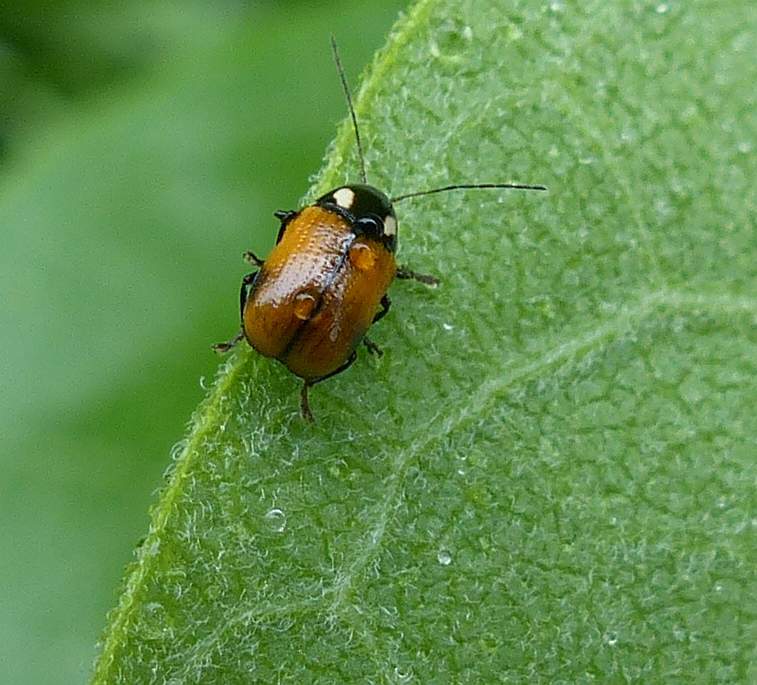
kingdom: Animalia
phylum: Arthropoda
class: Insecta
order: Coleoptera
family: Chrysomelidae
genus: Bassareus
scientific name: Bassareus mammifer
